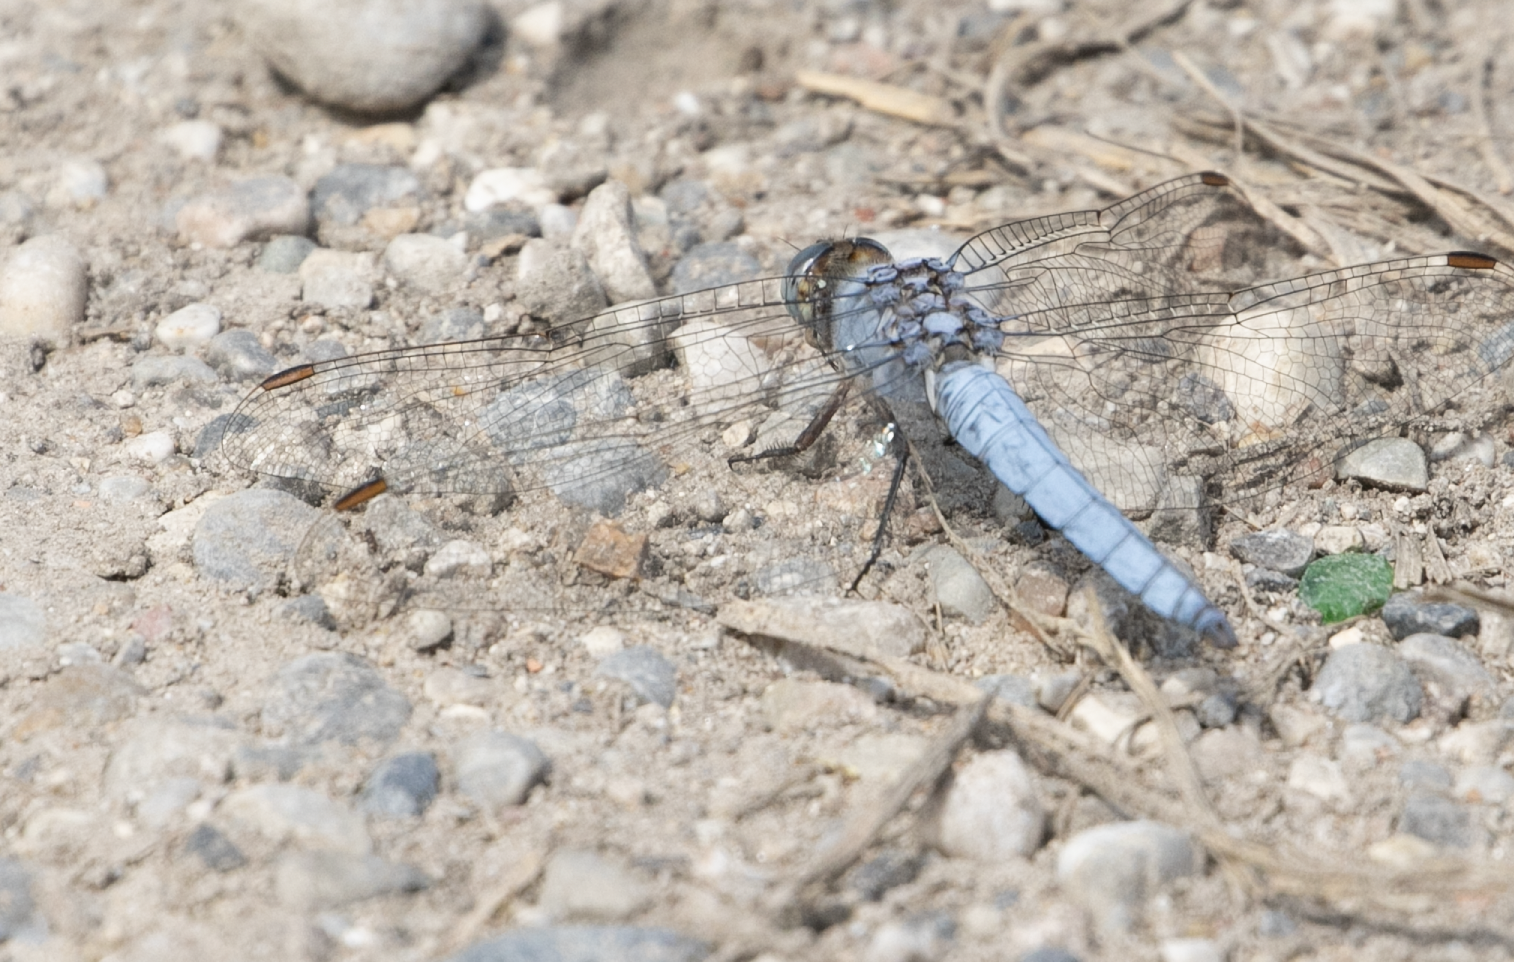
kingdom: Animalia
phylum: Arthropoda
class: Insecta
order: Odonata
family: Libellulidae
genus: Orthetrum
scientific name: Orthetrum brunneum
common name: Southern skimmer
